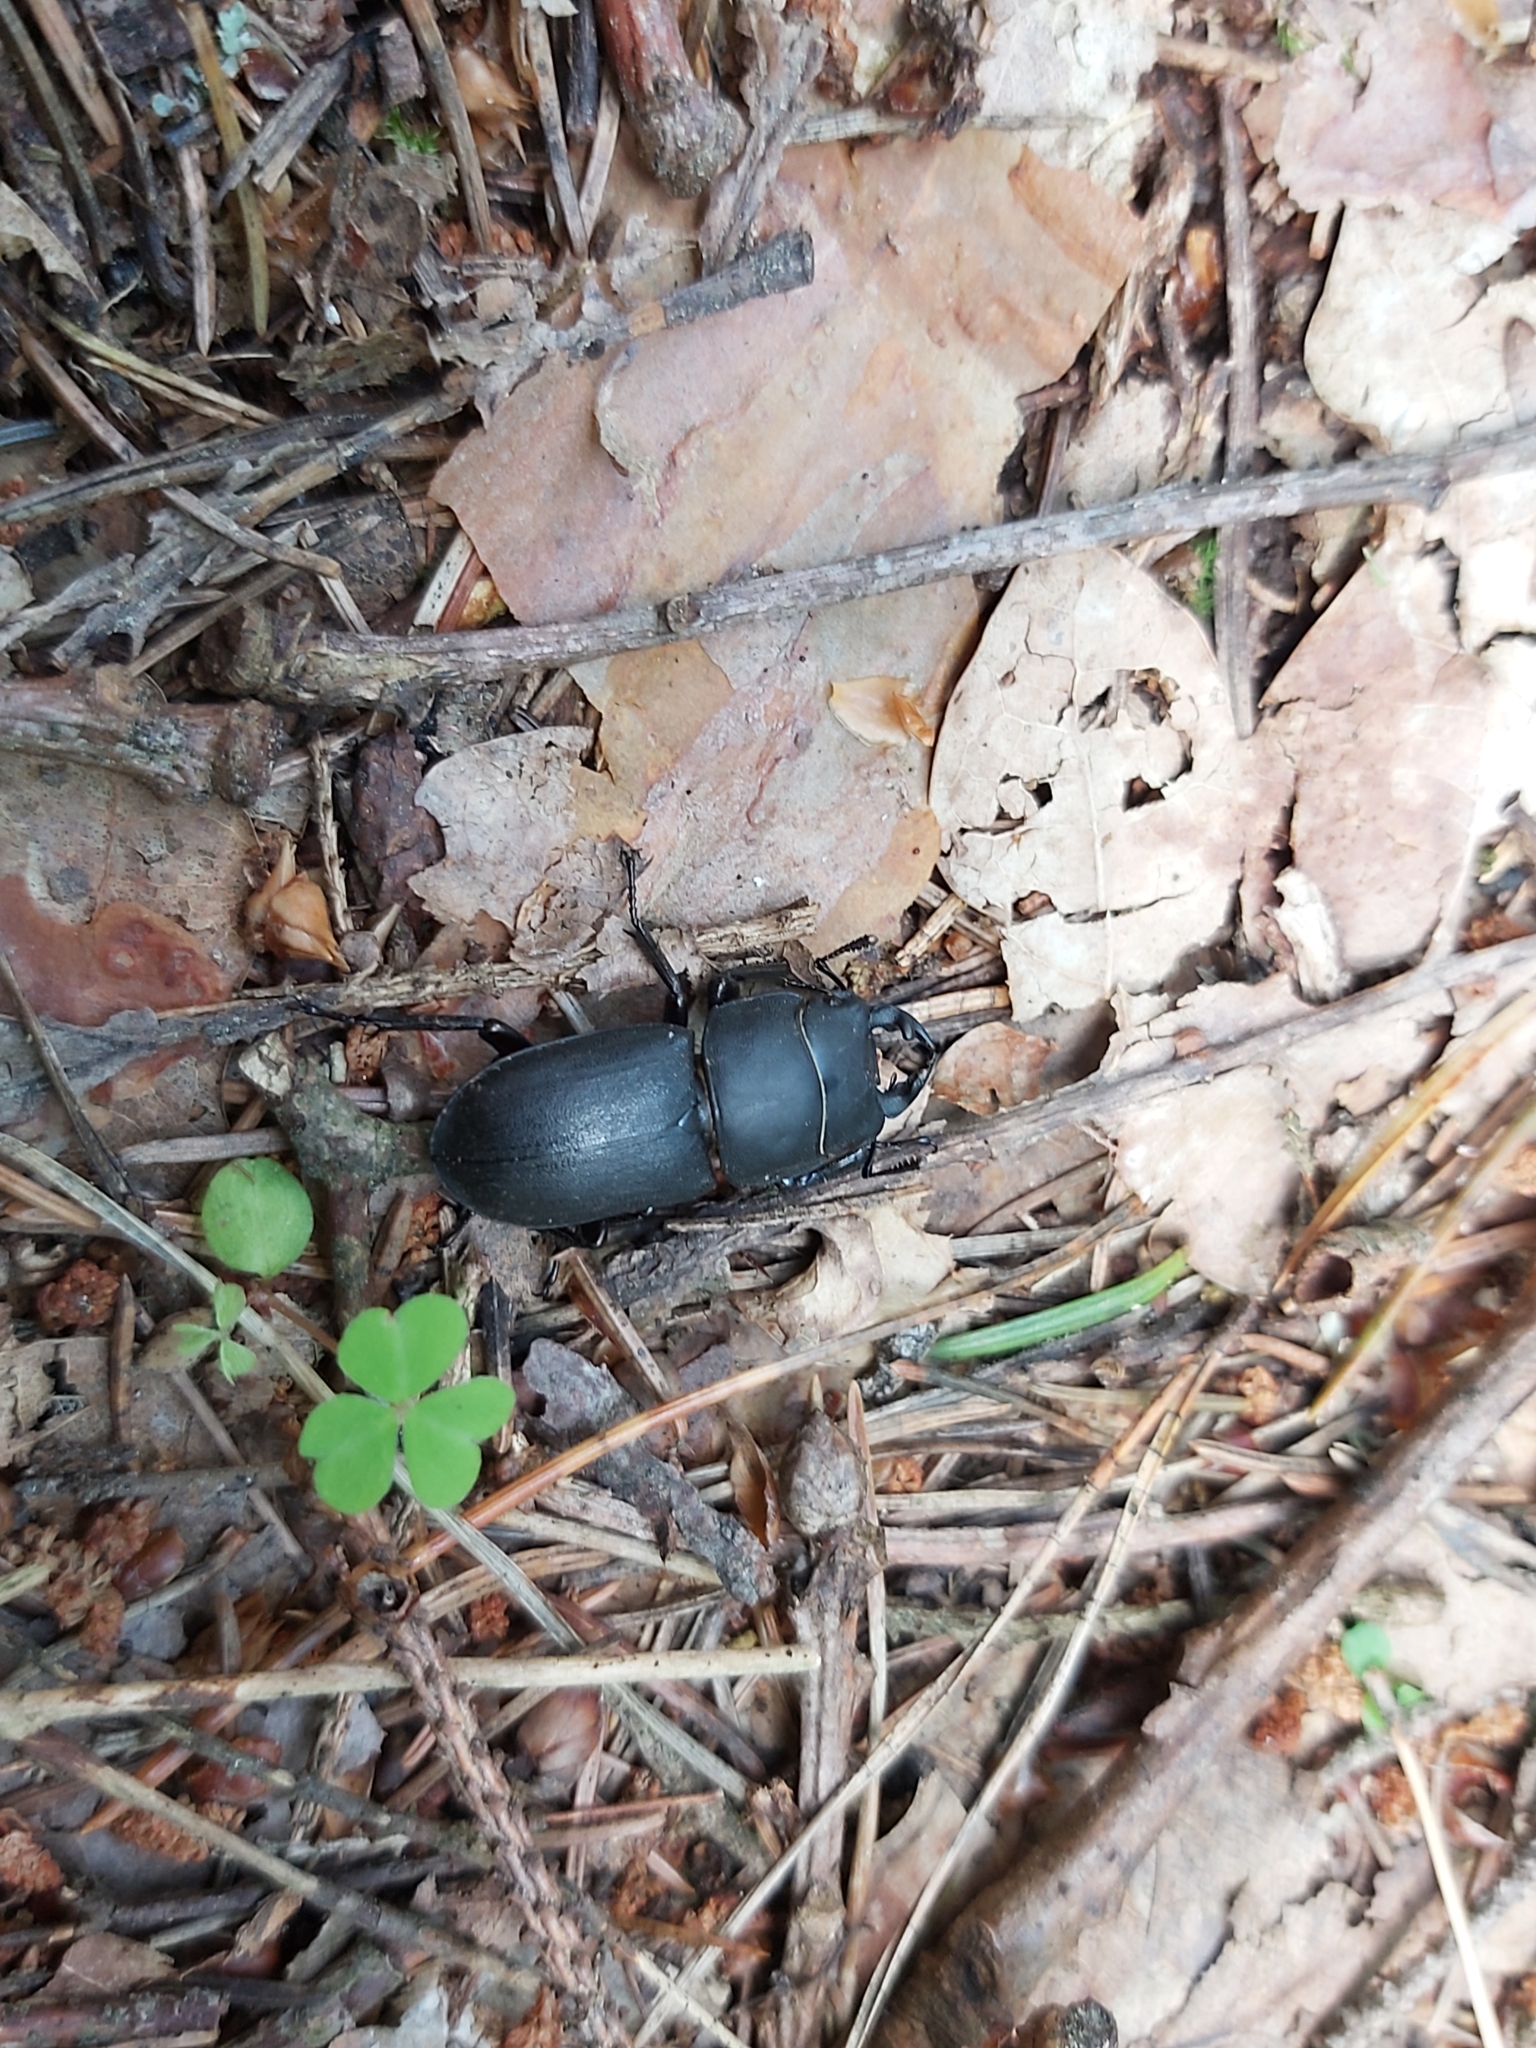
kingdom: Animalia
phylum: Arthropoda
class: Insecta
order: Coleoptera
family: Lucanidae
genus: Dorcus
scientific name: Dorcus parallelipipedus
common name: Lesser stag beetle
